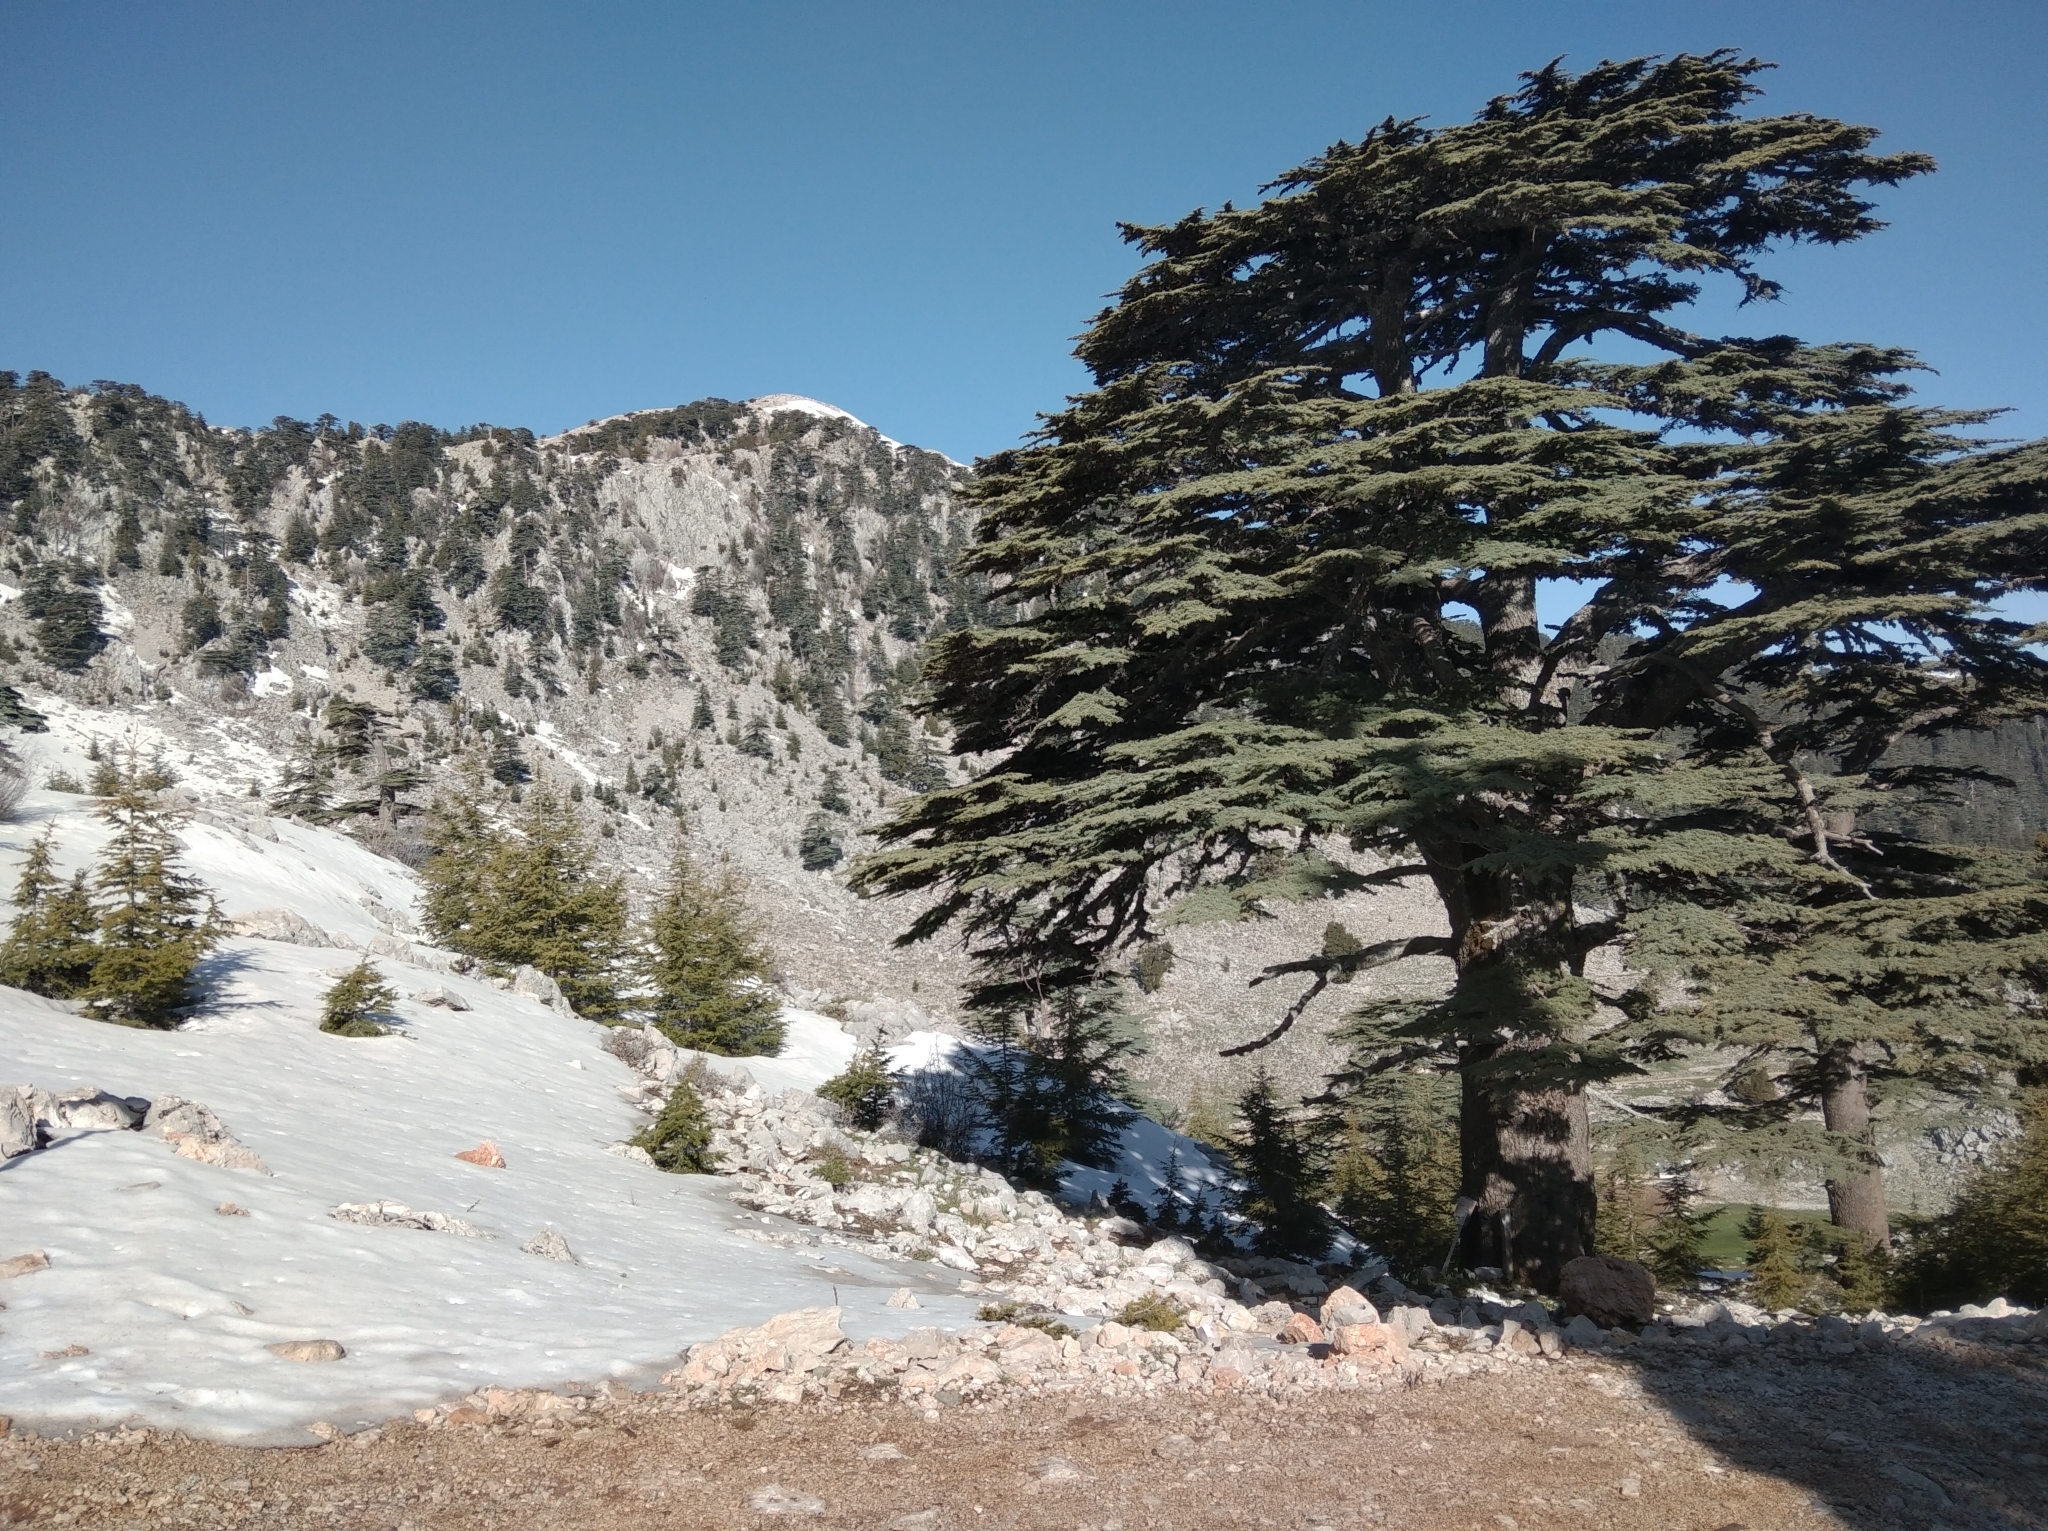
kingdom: Plantae
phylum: Tracheophyta
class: Pinopsida
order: Pinales
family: Pinaceae
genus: Cedrus
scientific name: Cedrus libani
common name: Cedar-of-lebanon
